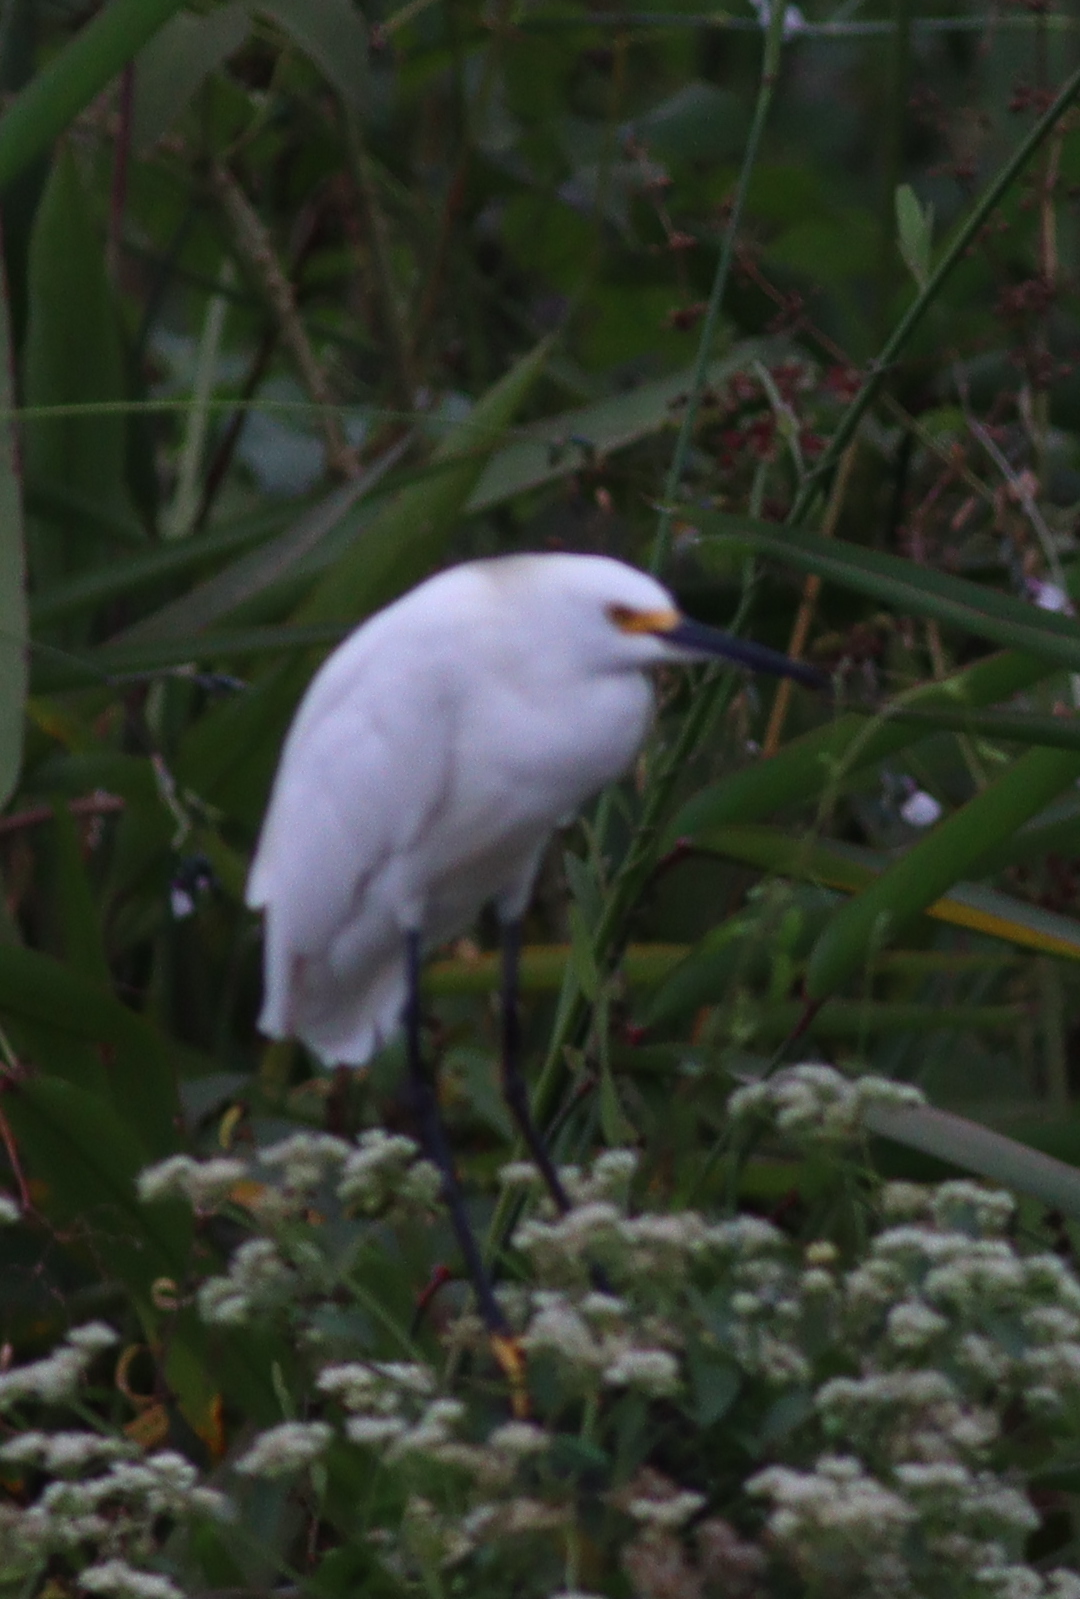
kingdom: Animalia
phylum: Chordata
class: Aves
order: Pelecaniformes
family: Ardeidae
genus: Egretta
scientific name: Egretta thula
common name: Snowy egret
